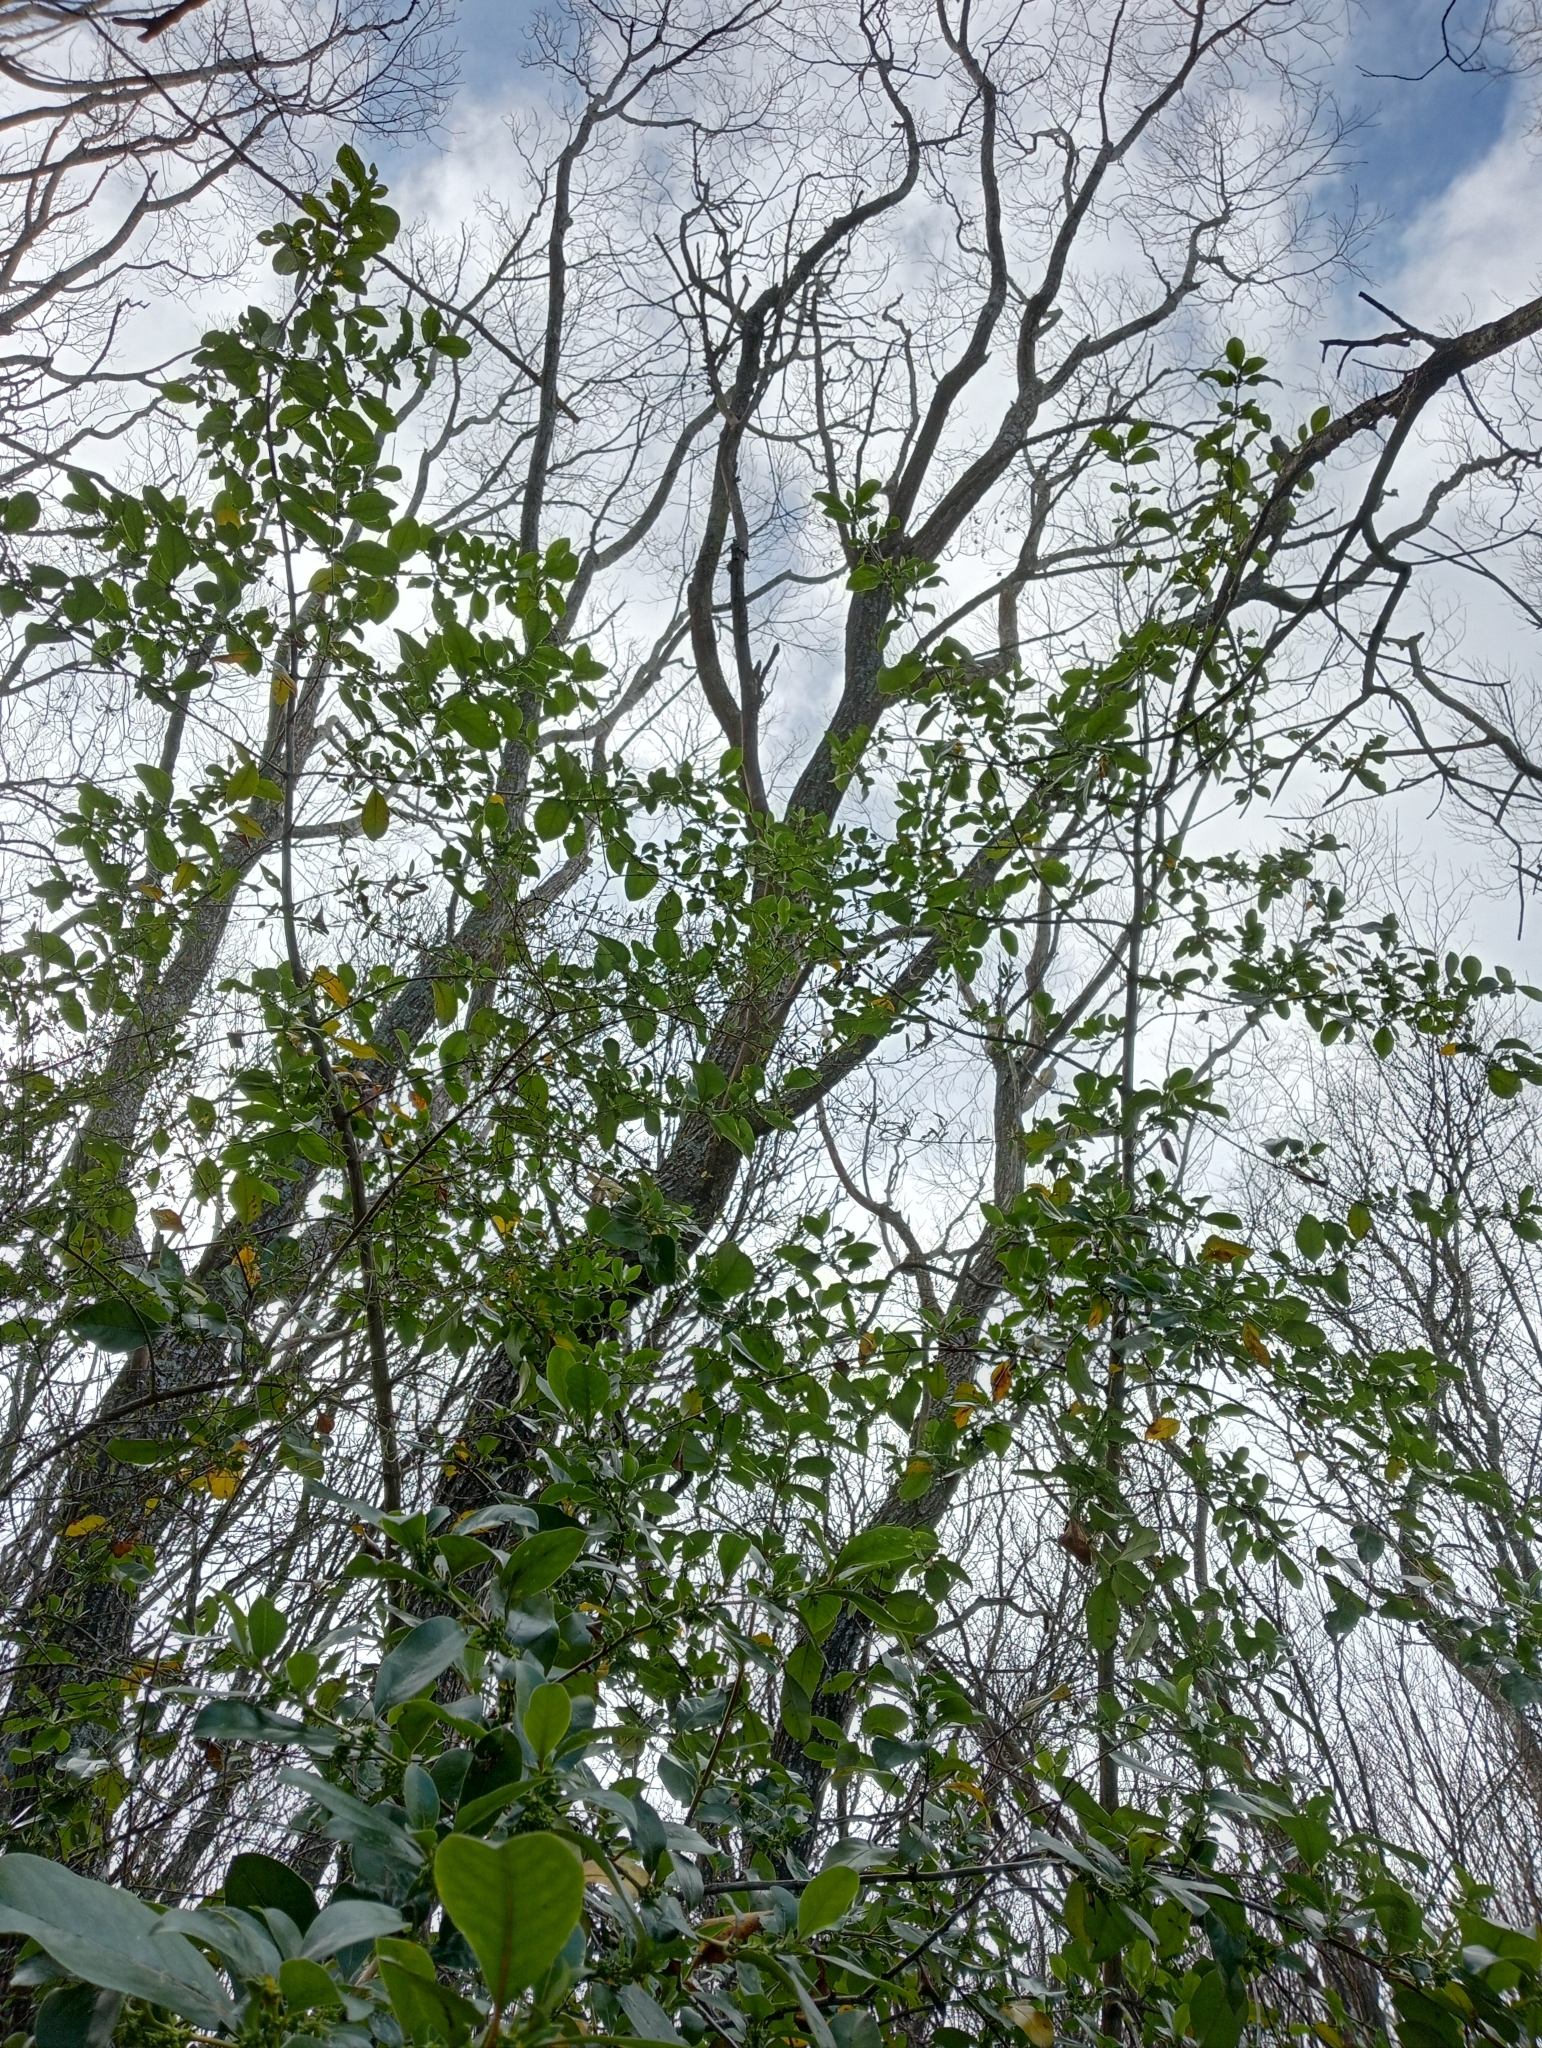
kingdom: Plantae
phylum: Tracheophyta
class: Magnoliopsida
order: Gentianales
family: Rubiaceae
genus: Coprosma
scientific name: Coprosma robusta
